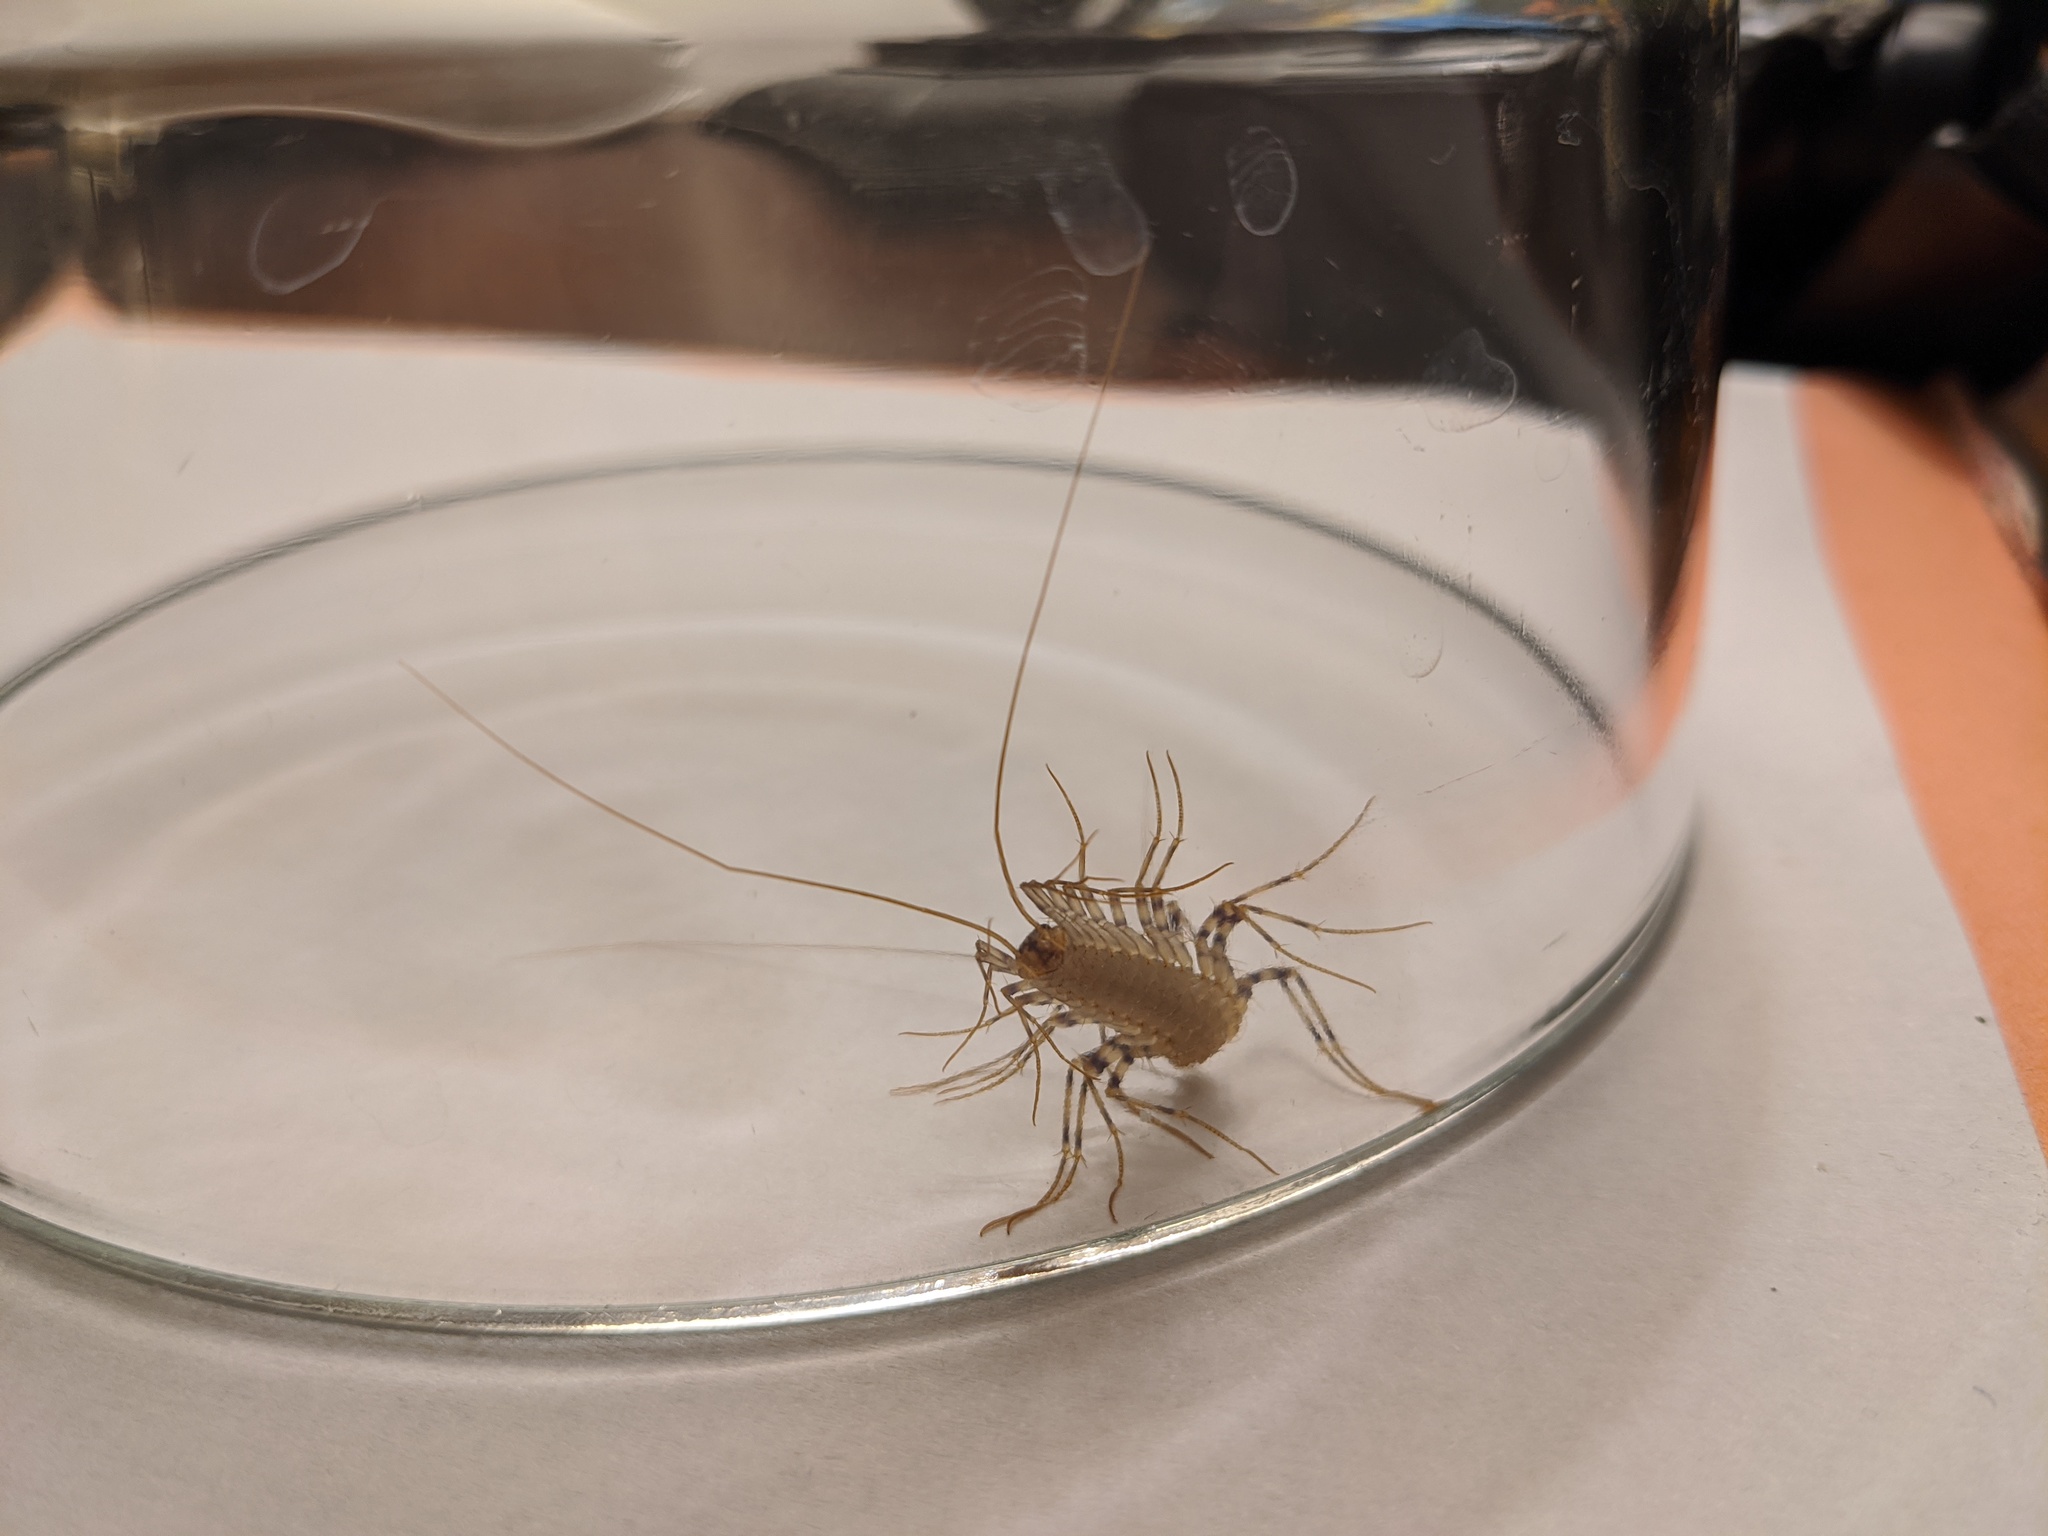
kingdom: Animalia
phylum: Arthropoda
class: Chilopoda
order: Scutigeromorpha
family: Scutigeridae
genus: Scutigera
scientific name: Scutigera coleoptrata
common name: House centipede
